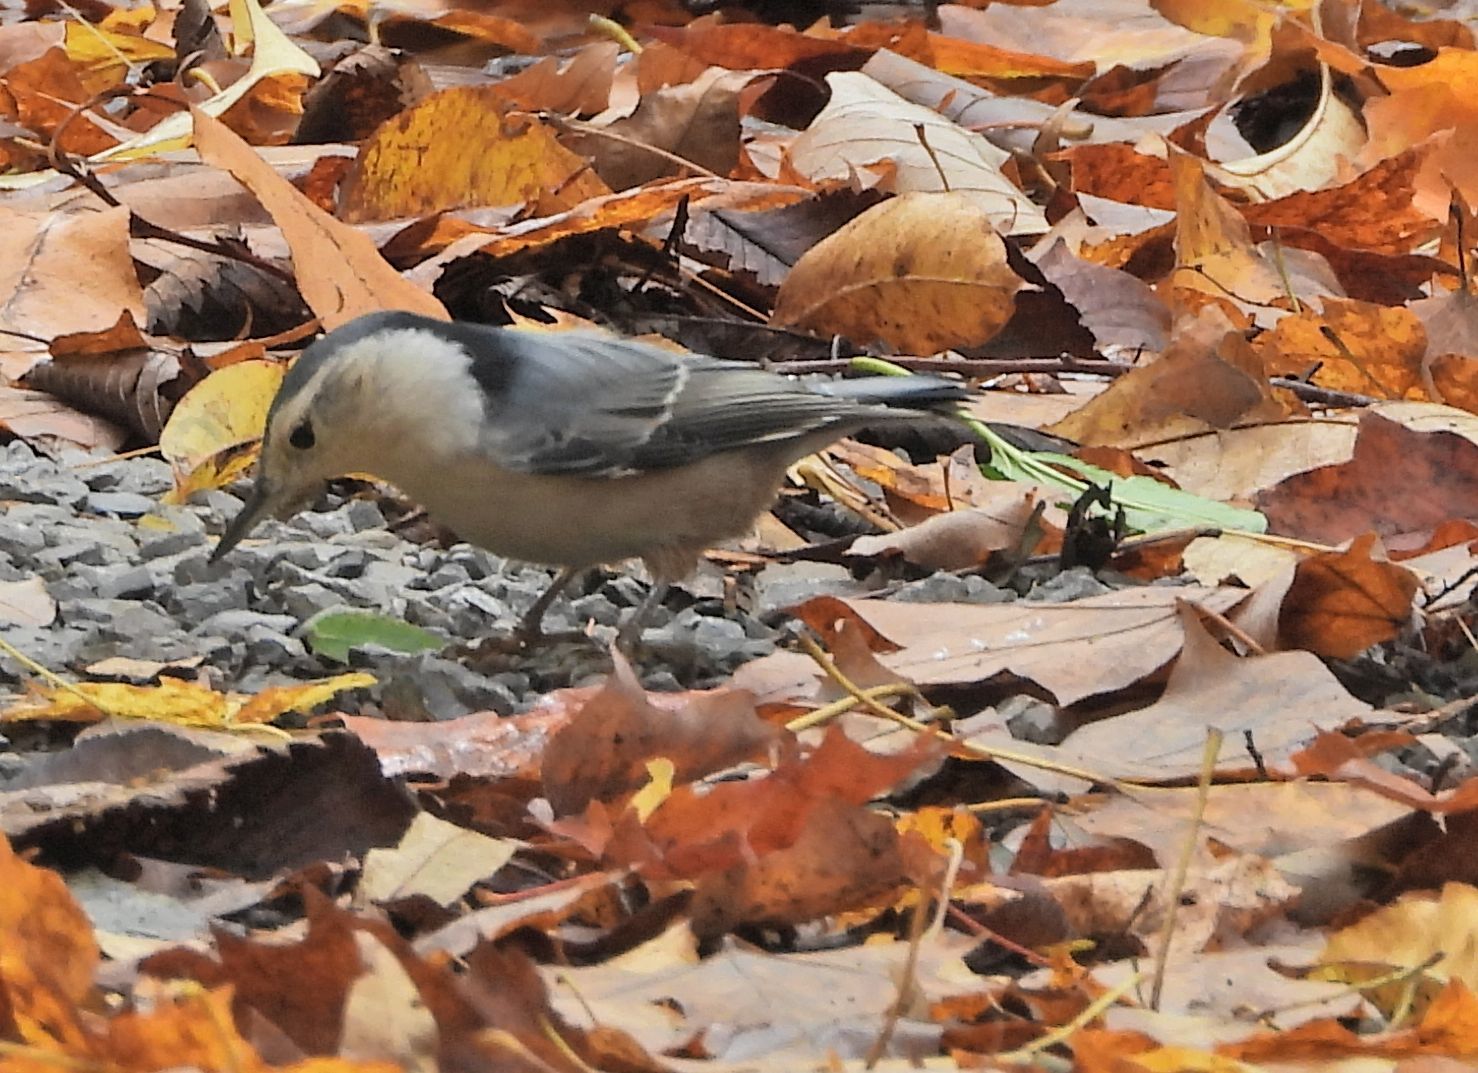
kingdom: Animalia
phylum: Chordata
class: Aves
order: Passeriformes
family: Sittidae
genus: Sitta
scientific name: Sitta carolinensis
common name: White-breasted nuthatch
